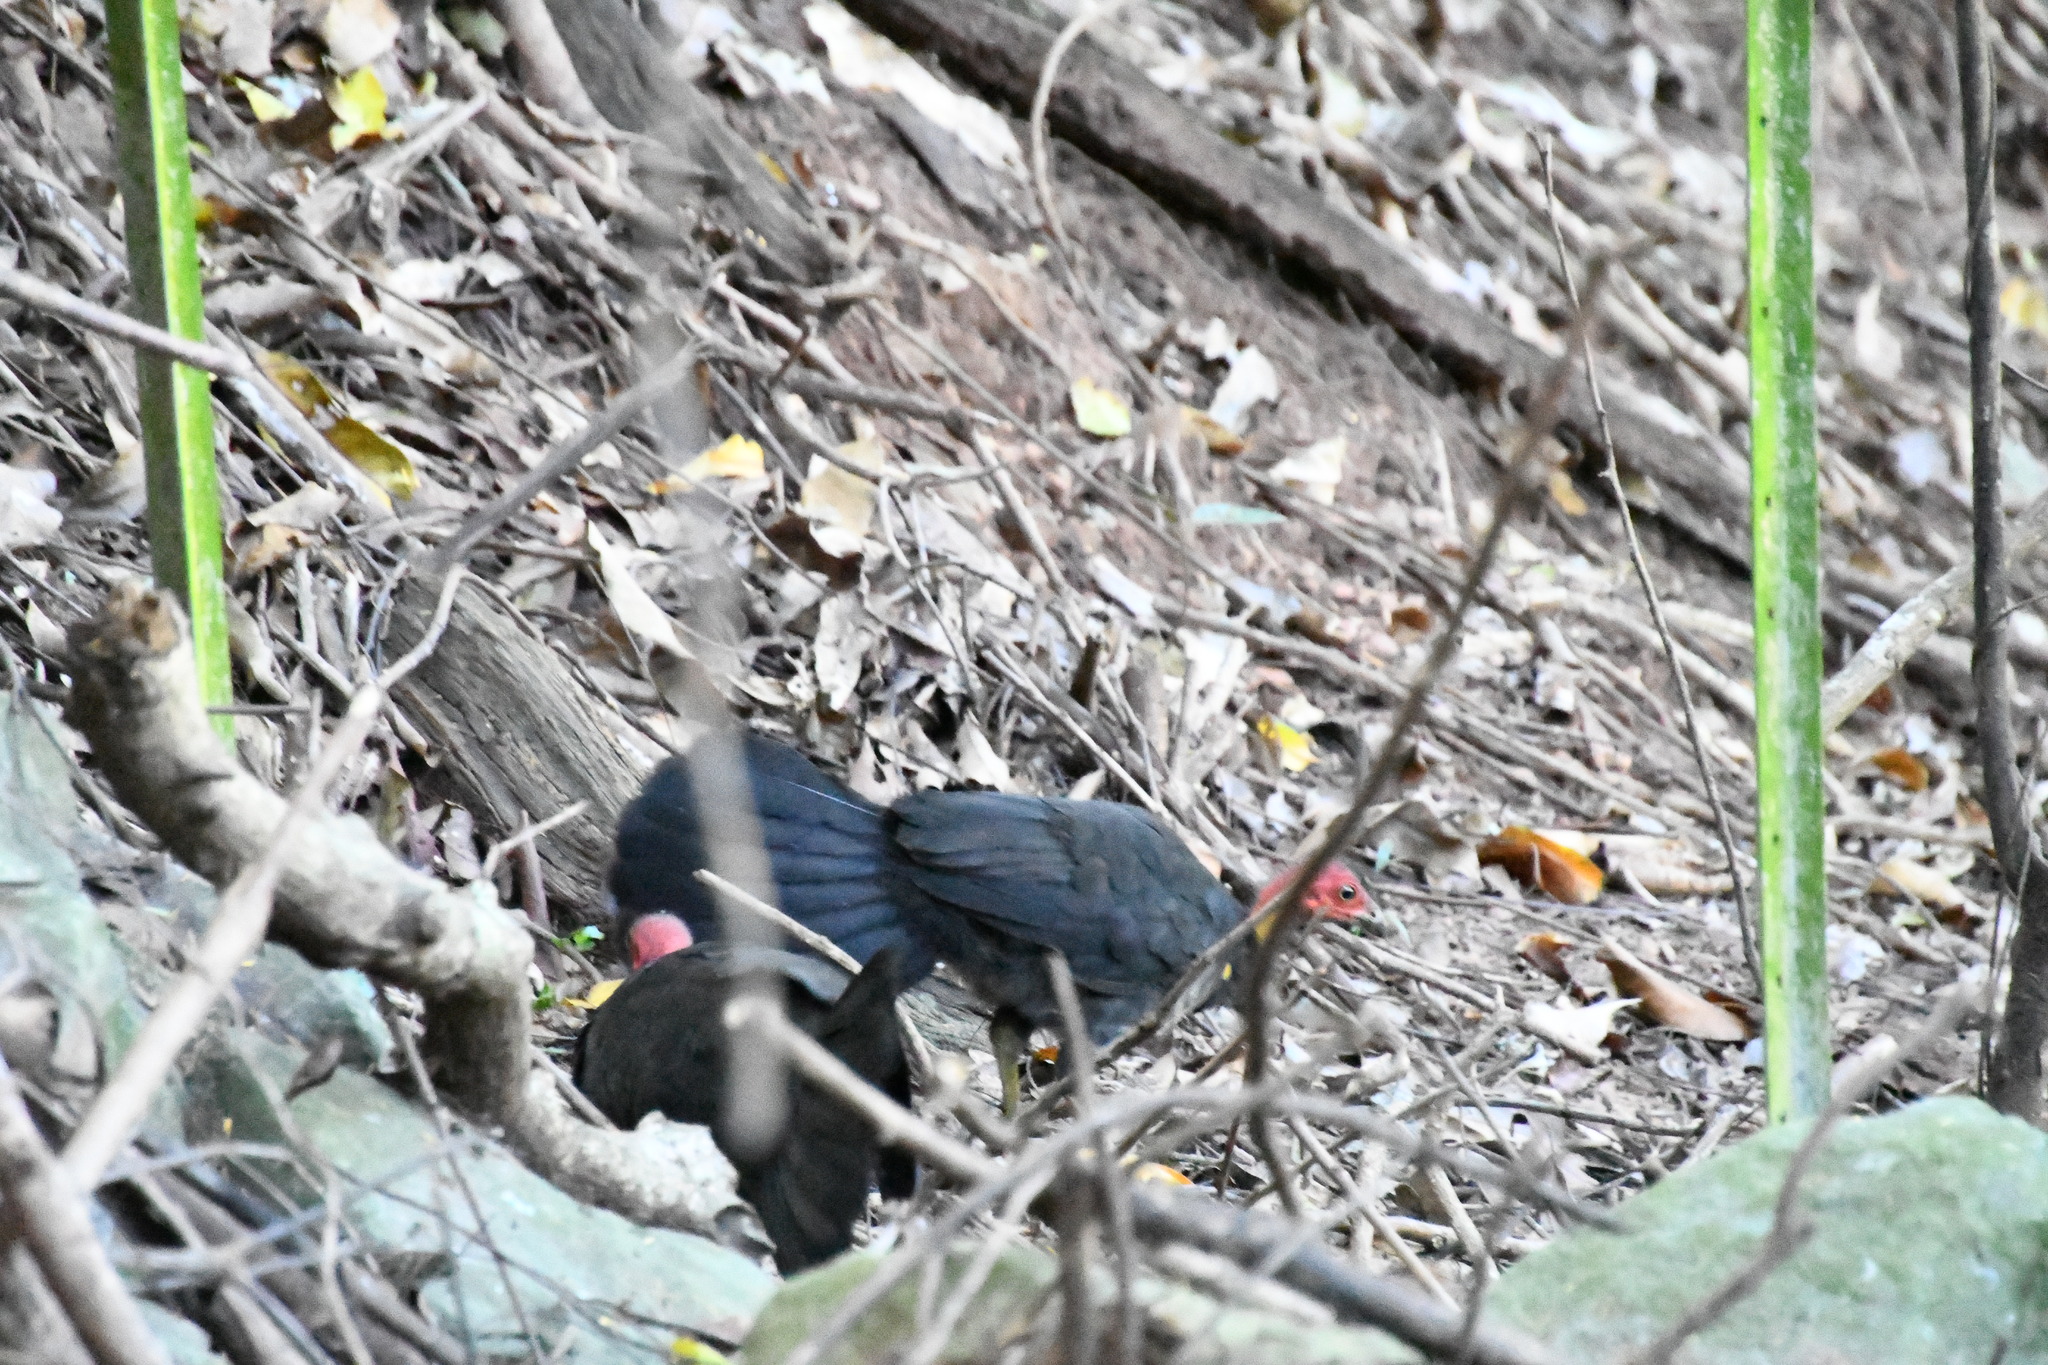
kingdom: Animalia
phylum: Chordata
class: Aves
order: Galliformes
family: Megapodiidae
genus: Alectura
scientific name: Alectura lathami
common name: Australian brushturkey
